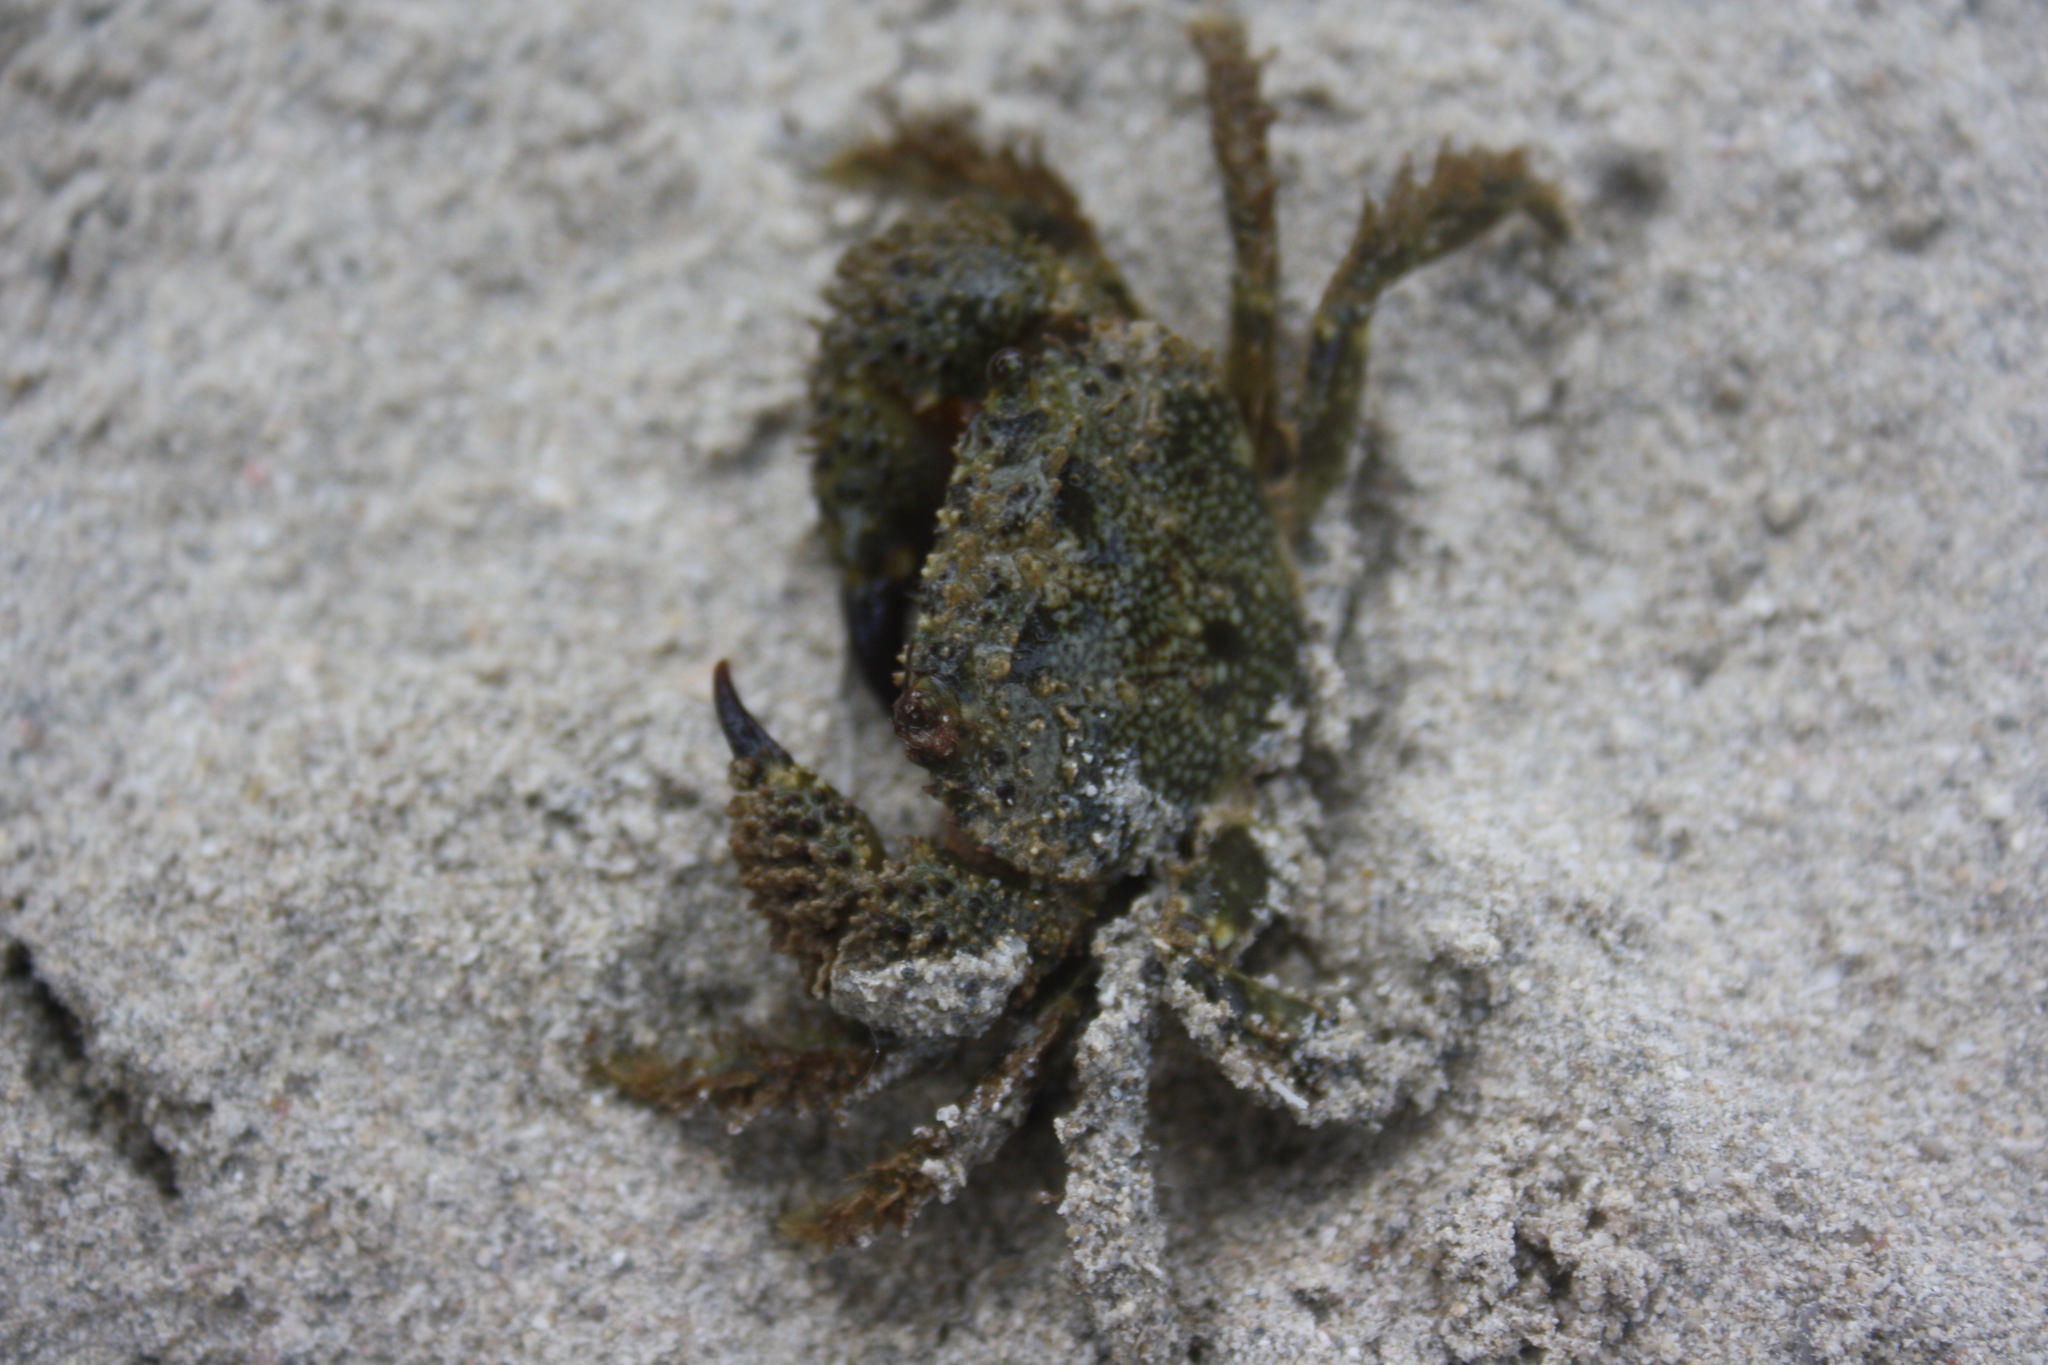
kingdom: Animalia
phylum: Arthropoda
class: Malacostraca
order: Decapoda
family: Eriphiidae
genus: Eriphia
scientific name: Eriphia verrucosa
